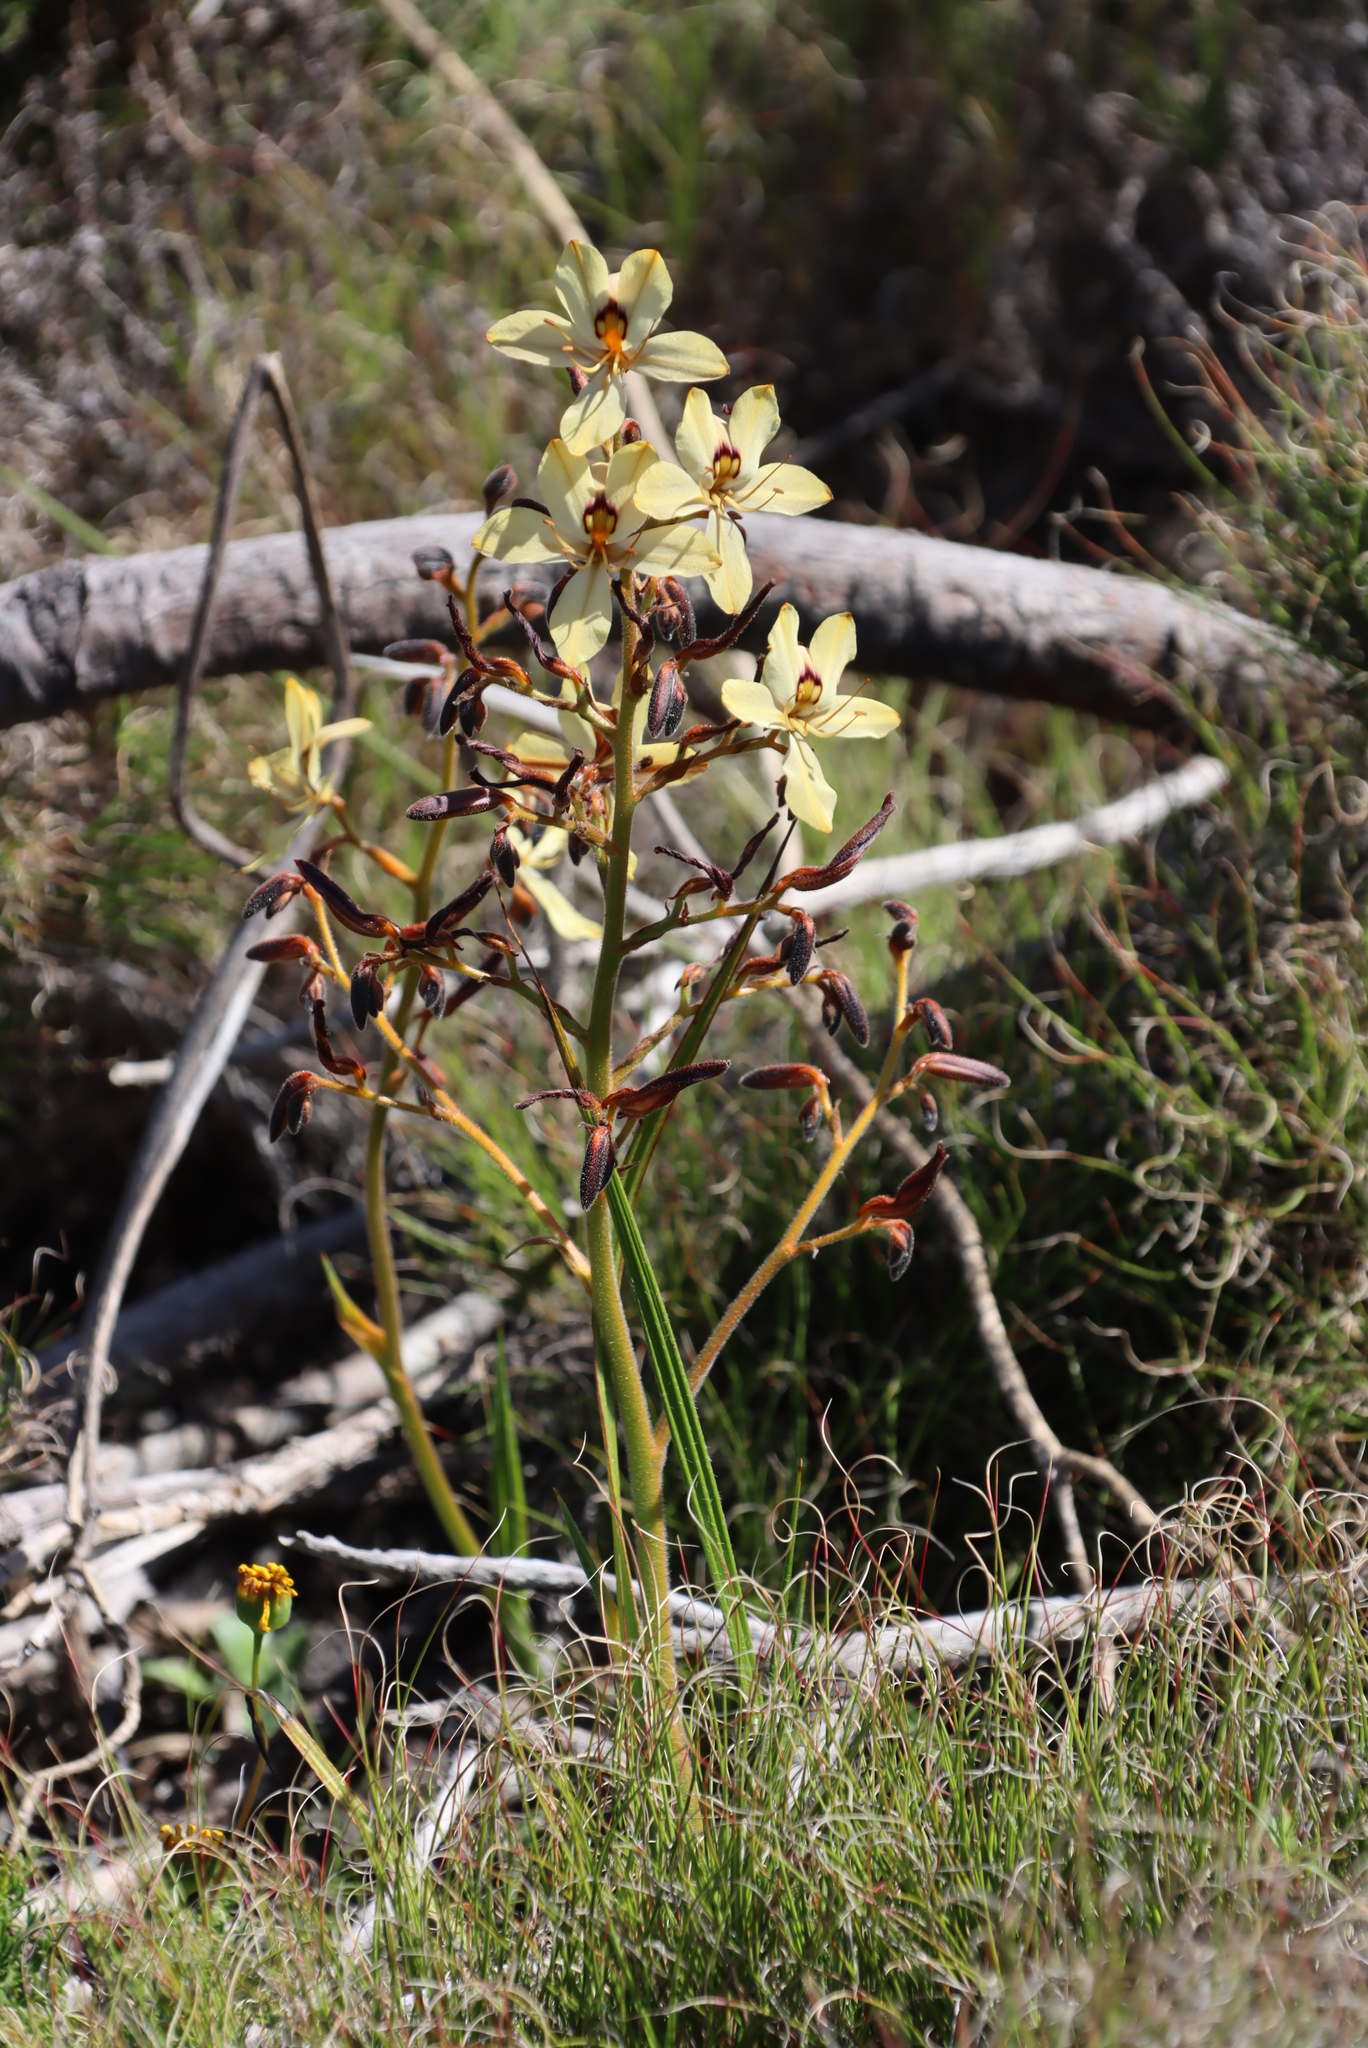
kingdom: Plantae
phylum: Tracheophyta
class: Liliopsida
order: Commelinales
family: Haemodoraceae
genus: Wachendorfia
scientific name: Wachendorfia paniculata
